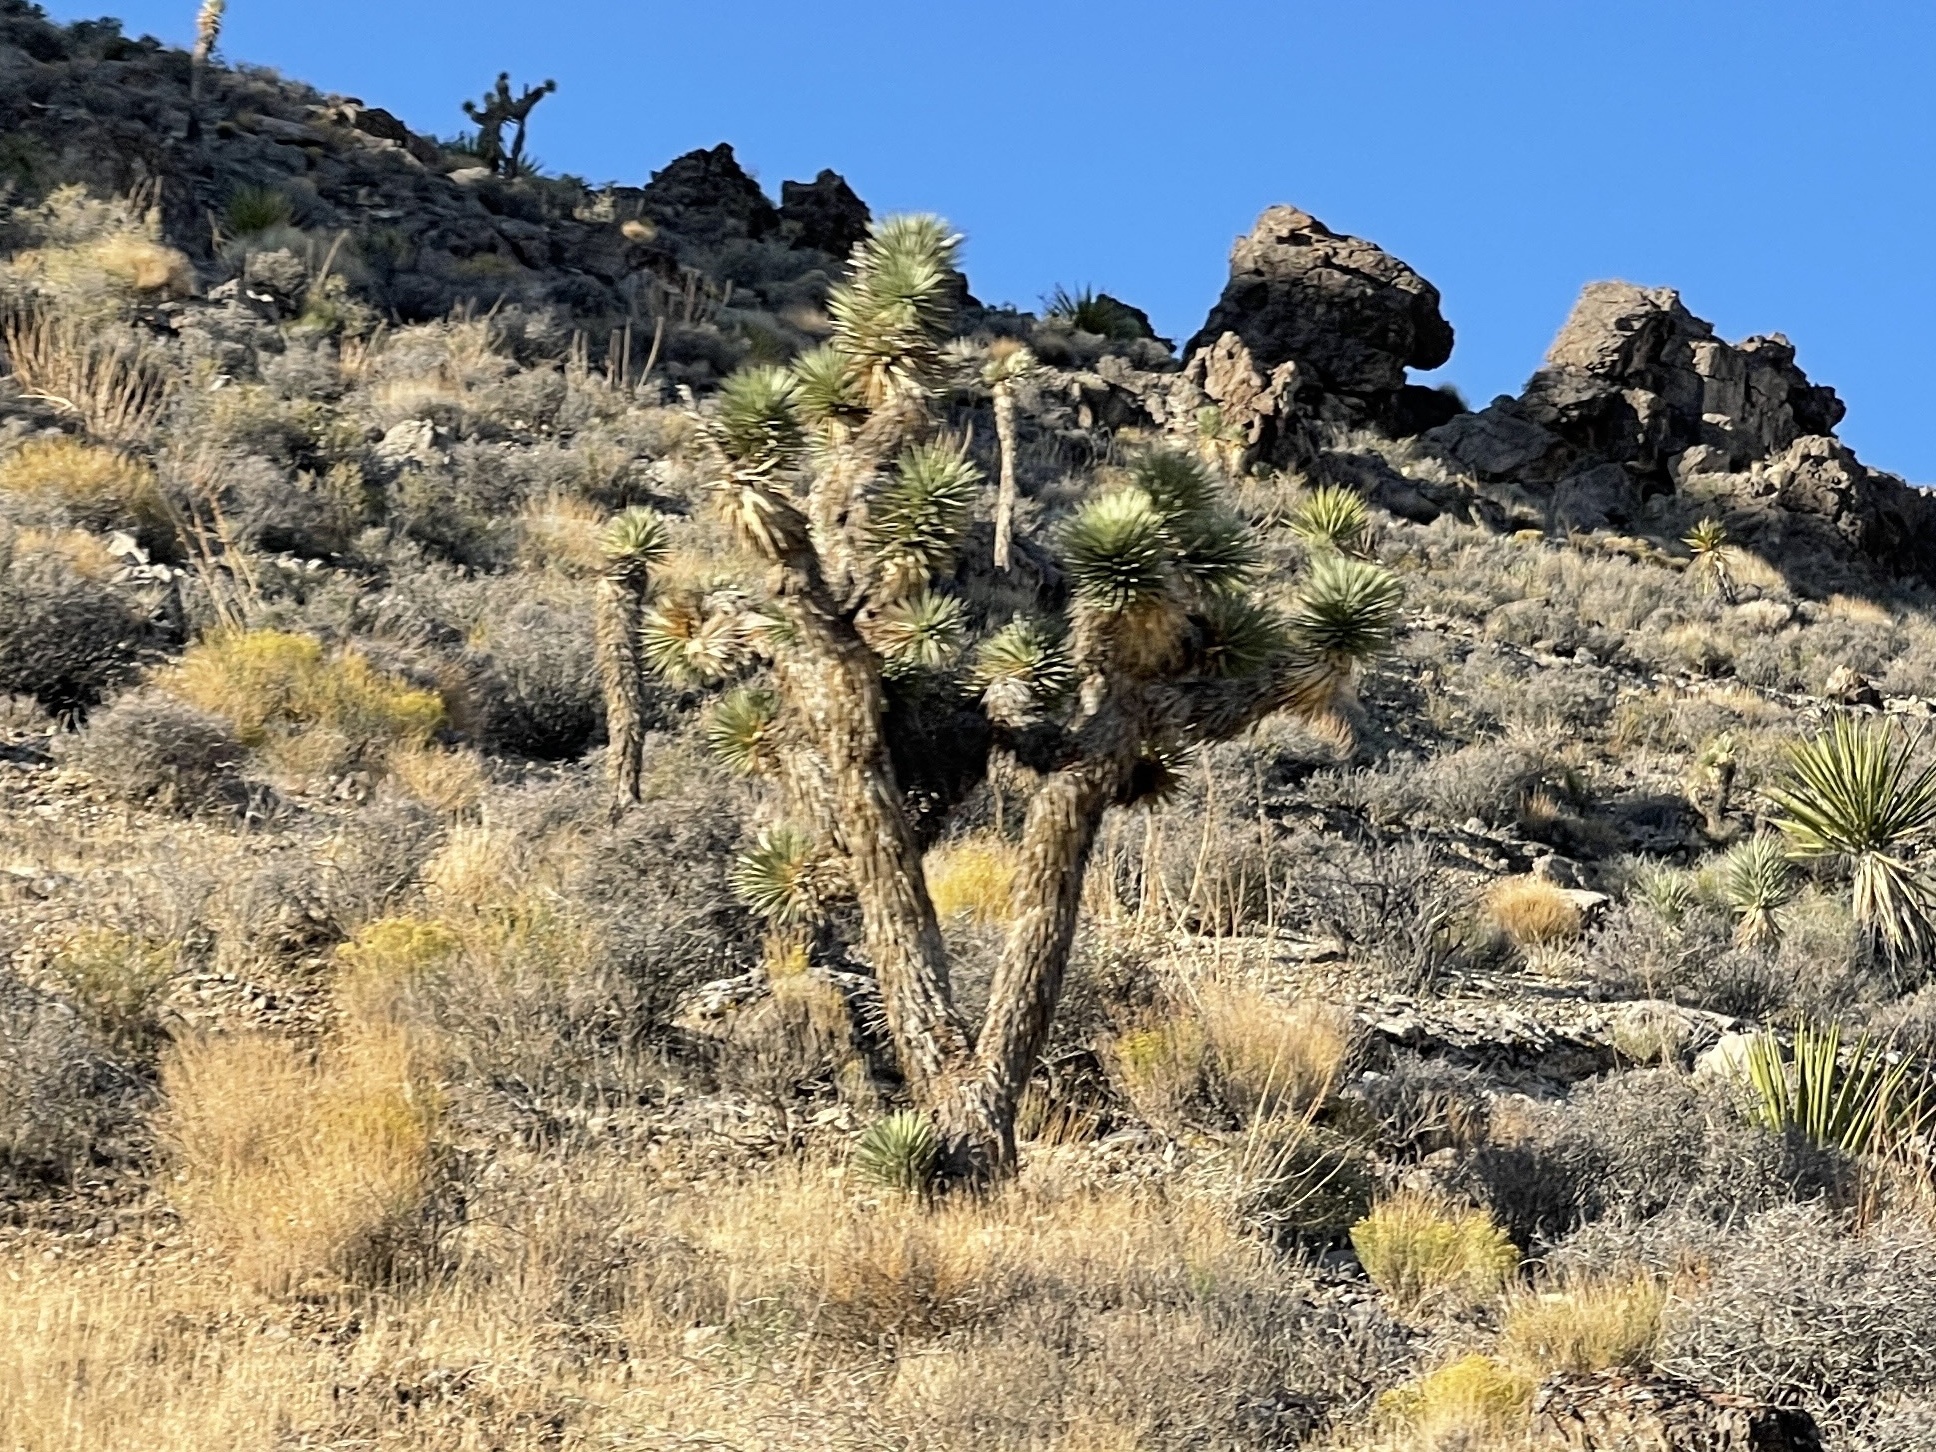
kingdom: Plantae
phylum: Tracheophyta
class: Liliopsida
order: Asparagales
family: Asparagaceae
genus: Yucca
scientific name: Yucca brevifolia
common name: Joshua tree
